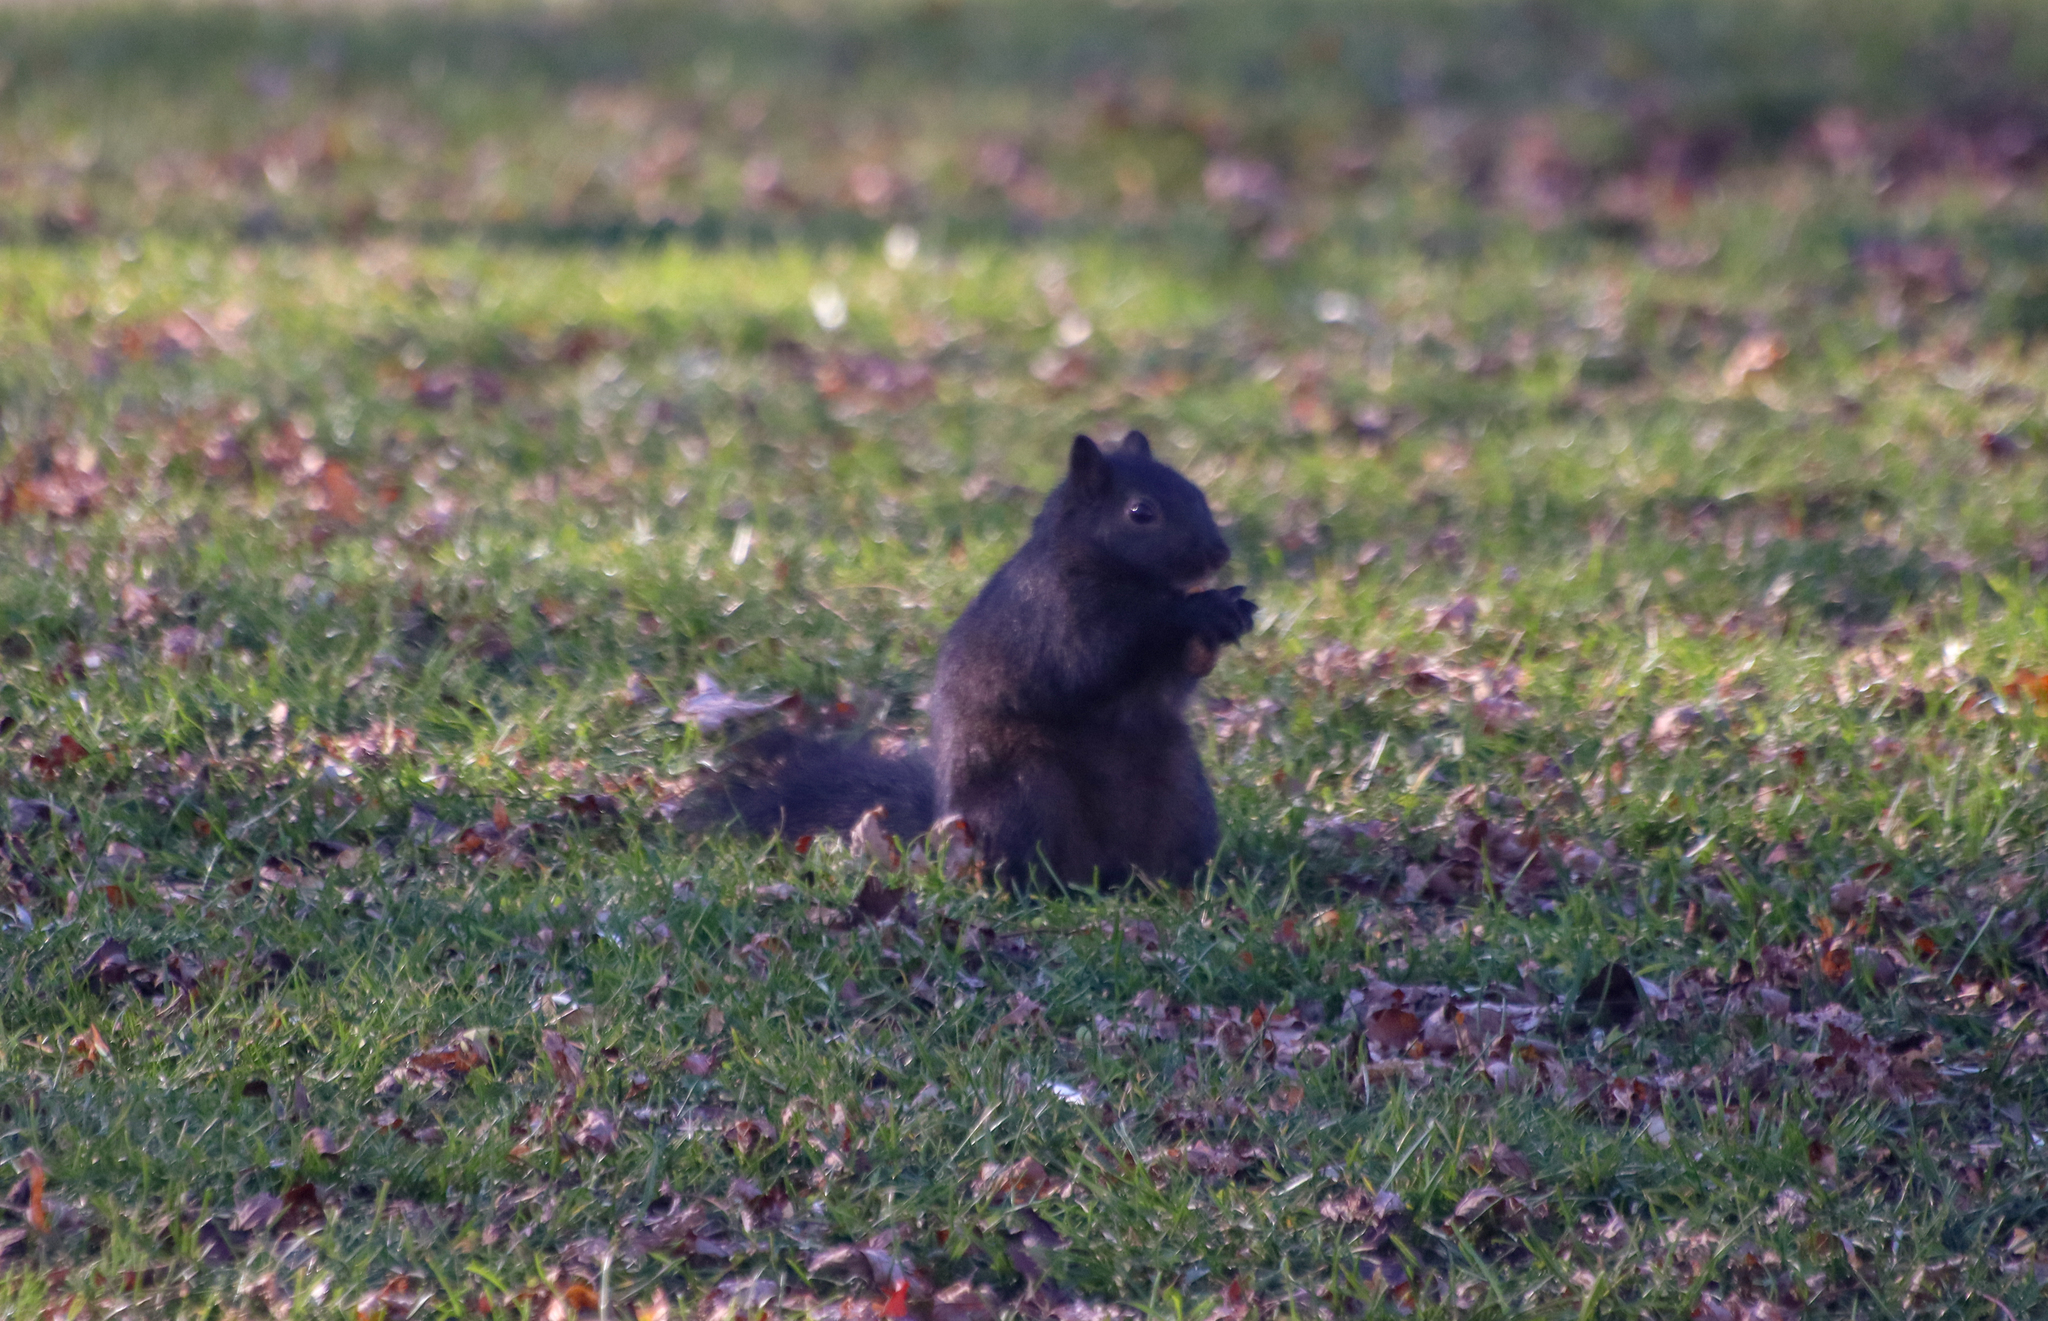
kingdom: Animalia
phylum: Chordata
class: Mammalia
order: Rodentia
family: Sciuridae
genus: Sciurus
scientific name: Sciurus carolinensis
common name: Eastern gray squirrel
